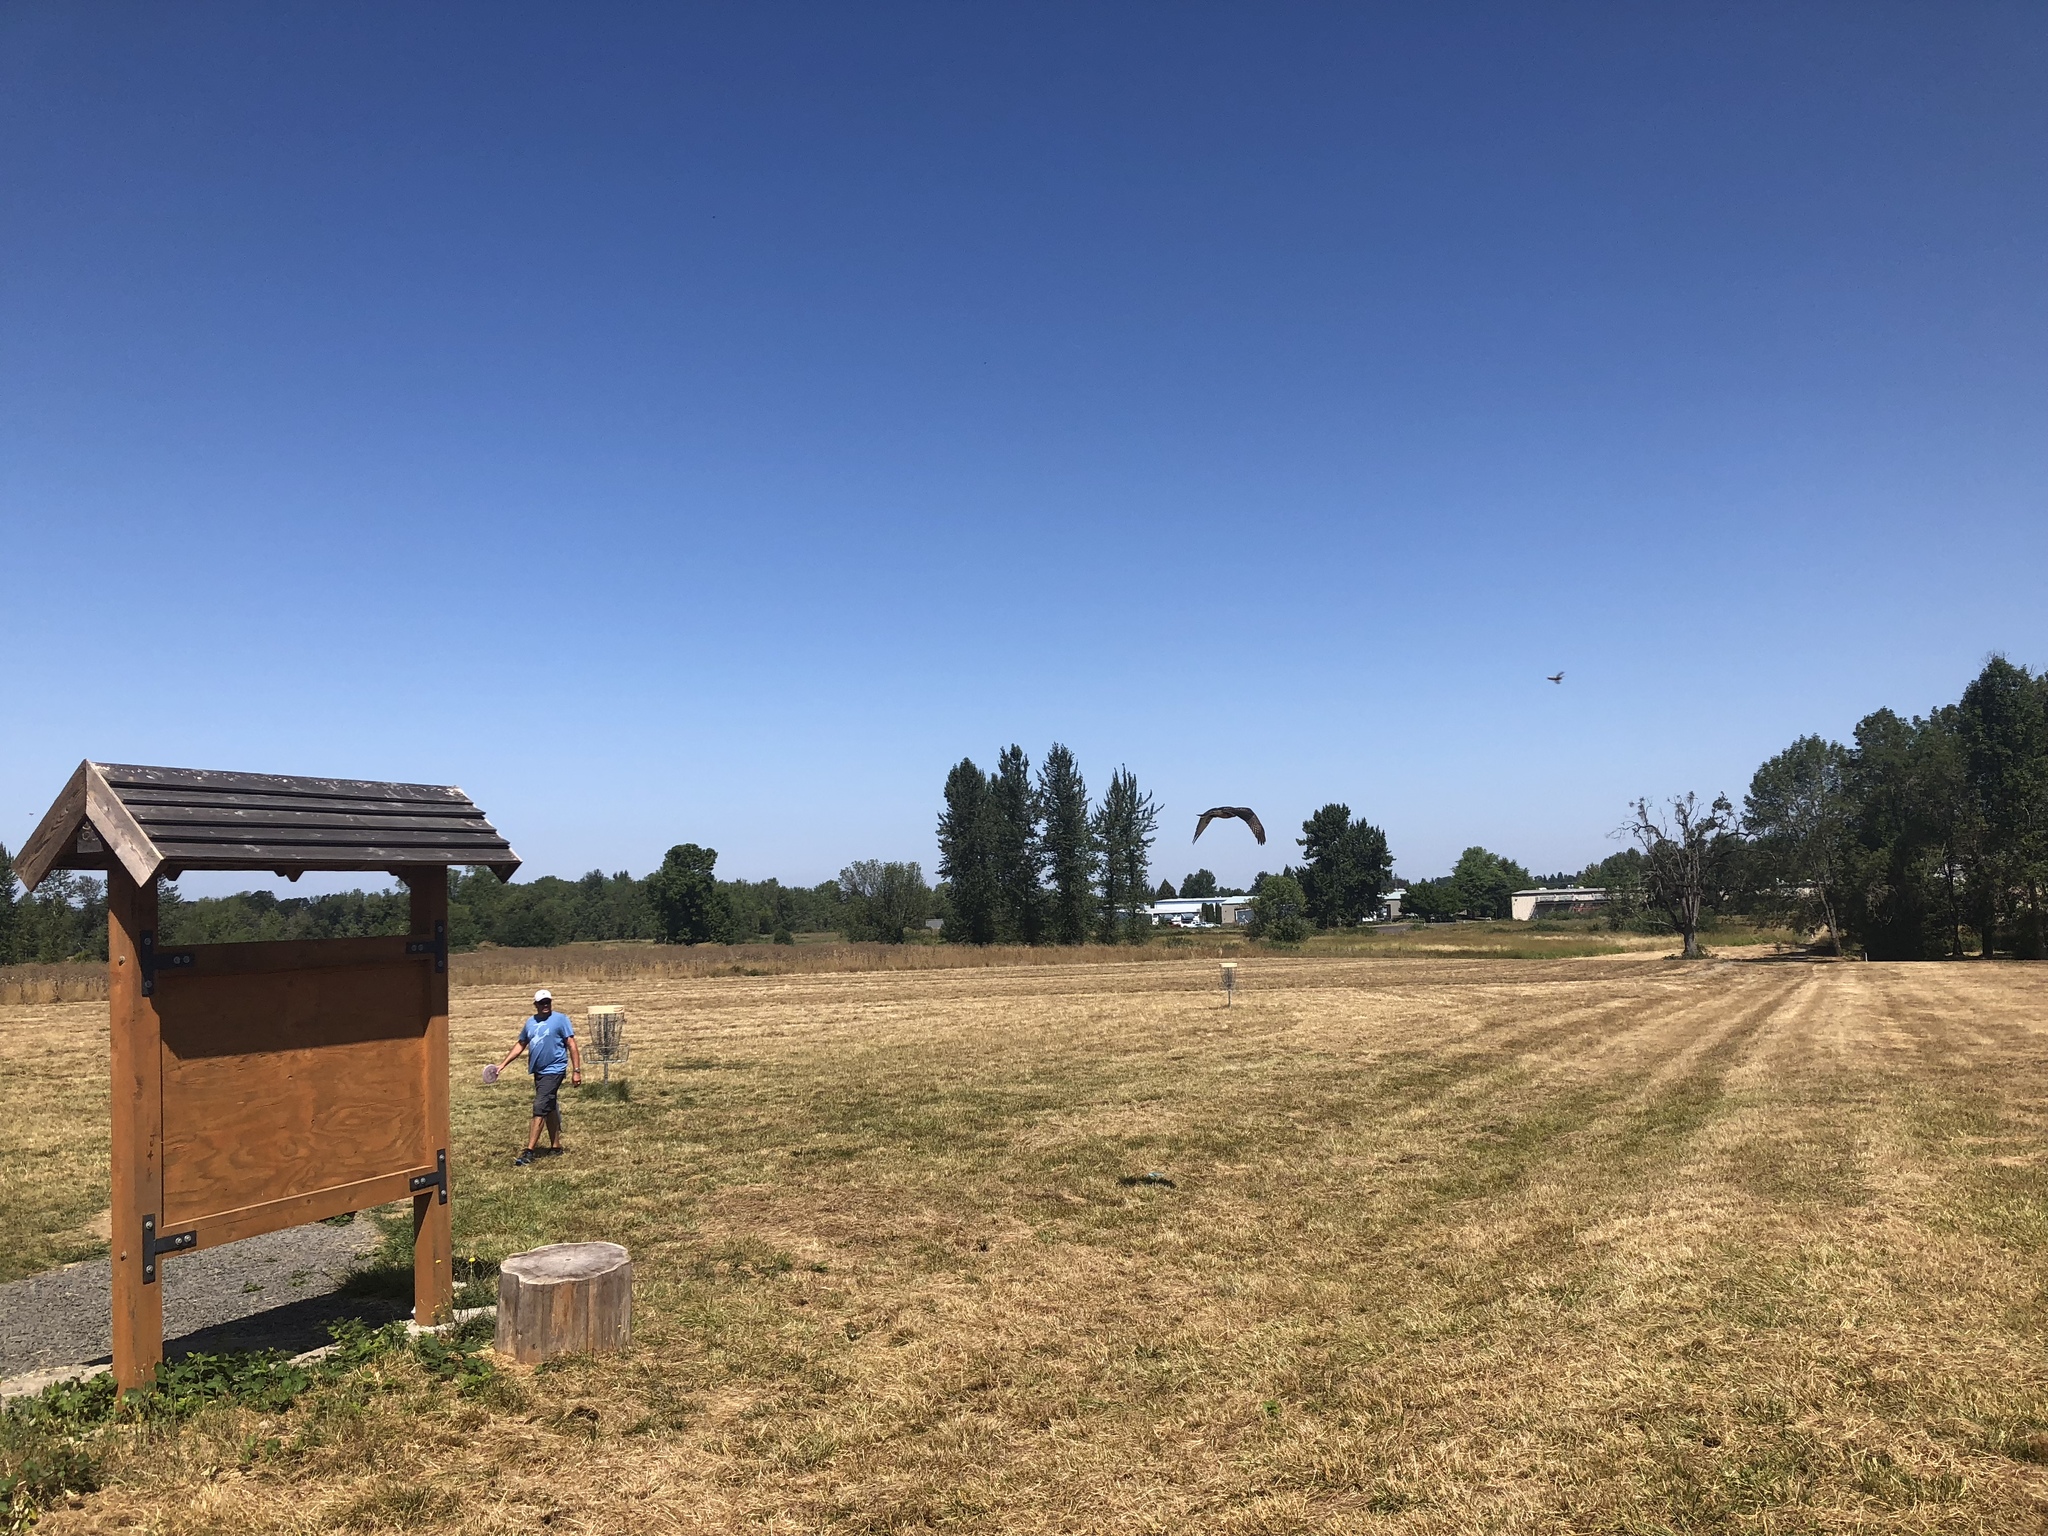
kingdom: Animalia
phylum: Chordata
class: Aves
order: Accipitriformes
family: Accipitridae
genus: Buteo
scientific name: Buteo jamaicensis
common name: Red-tailed hawk
